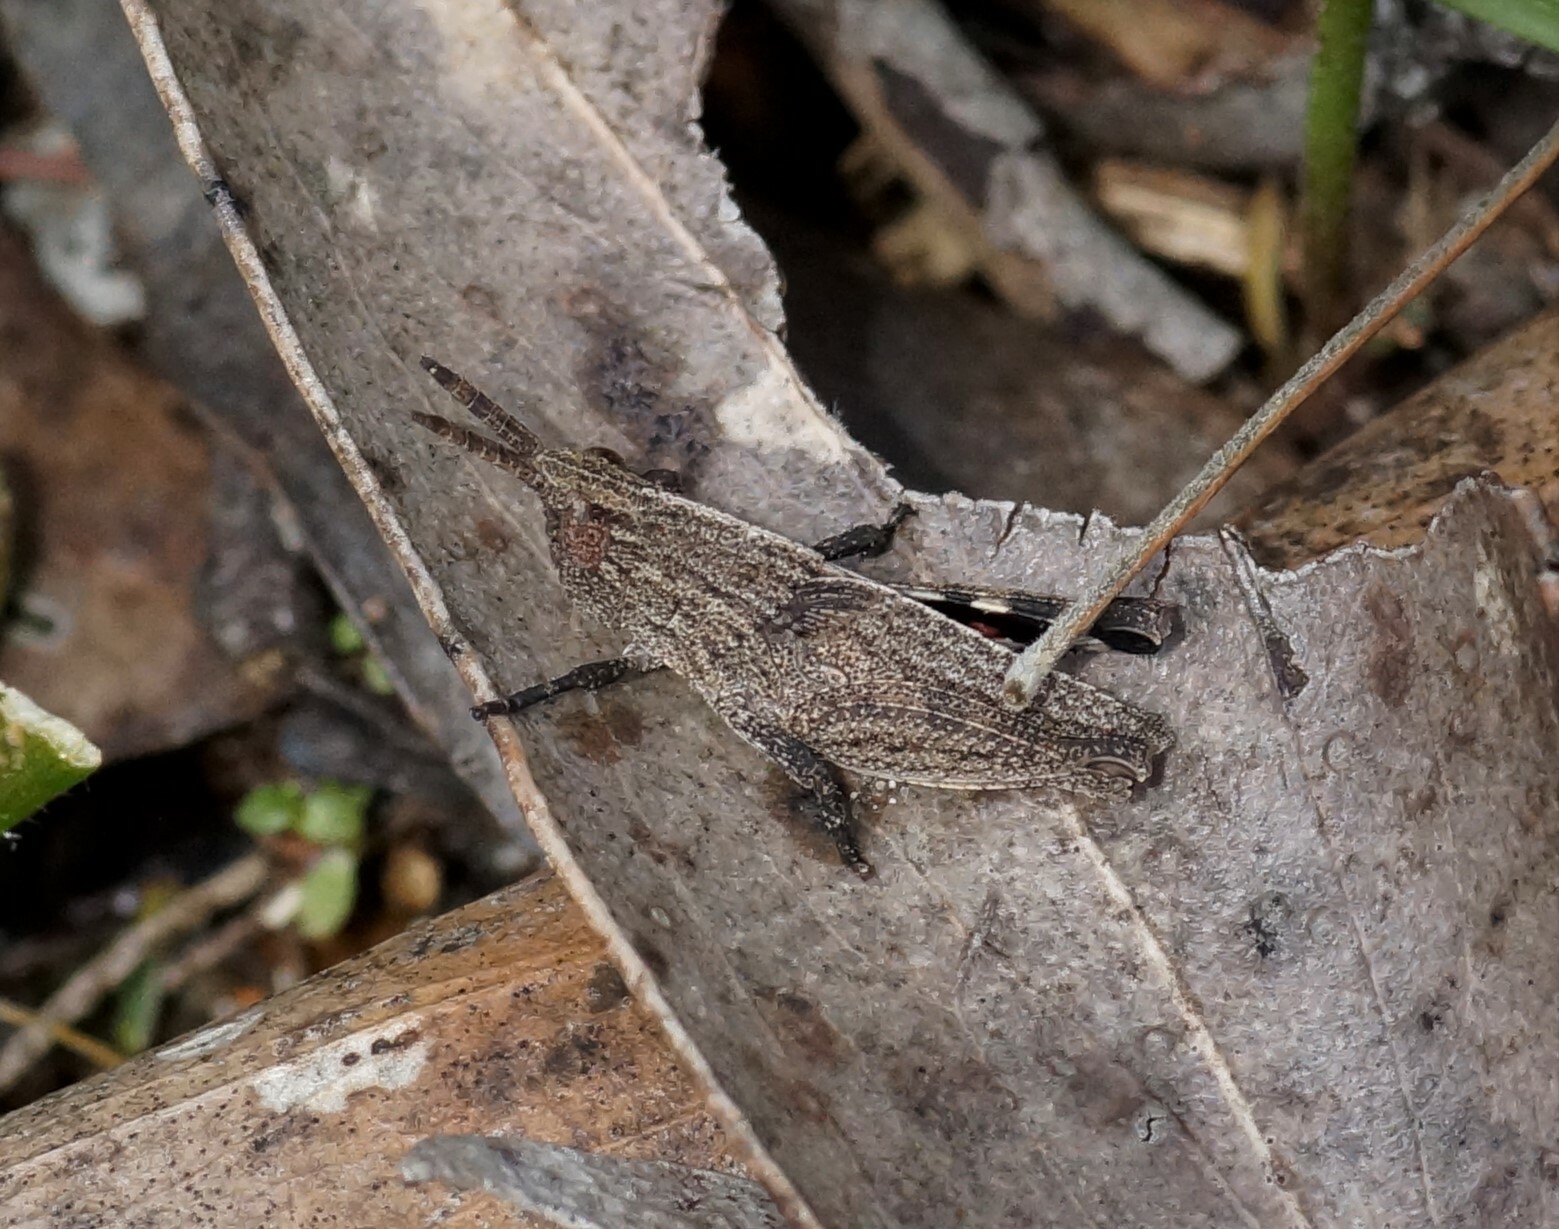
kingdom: Animalia
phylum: Arthropoda
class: Insecta
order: Orthoptera
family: Acrididae
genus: Goniaea
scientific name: Goniaea opomaloides
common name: Mimetic gumleaf grasshopper
